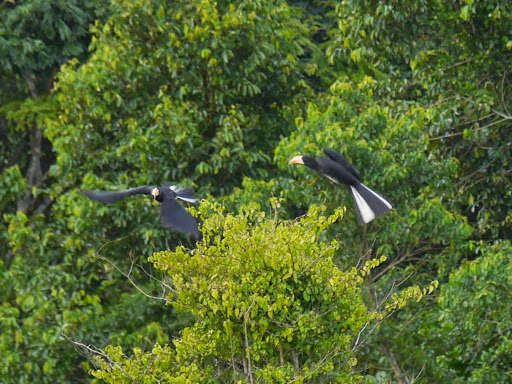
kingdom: Animalia
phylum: Chordata
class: Aves
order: Bucerotiformes
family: Bucerotidae
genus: Lophoceros
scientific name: Lophoceros fasciatus
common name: African pied hornbill
